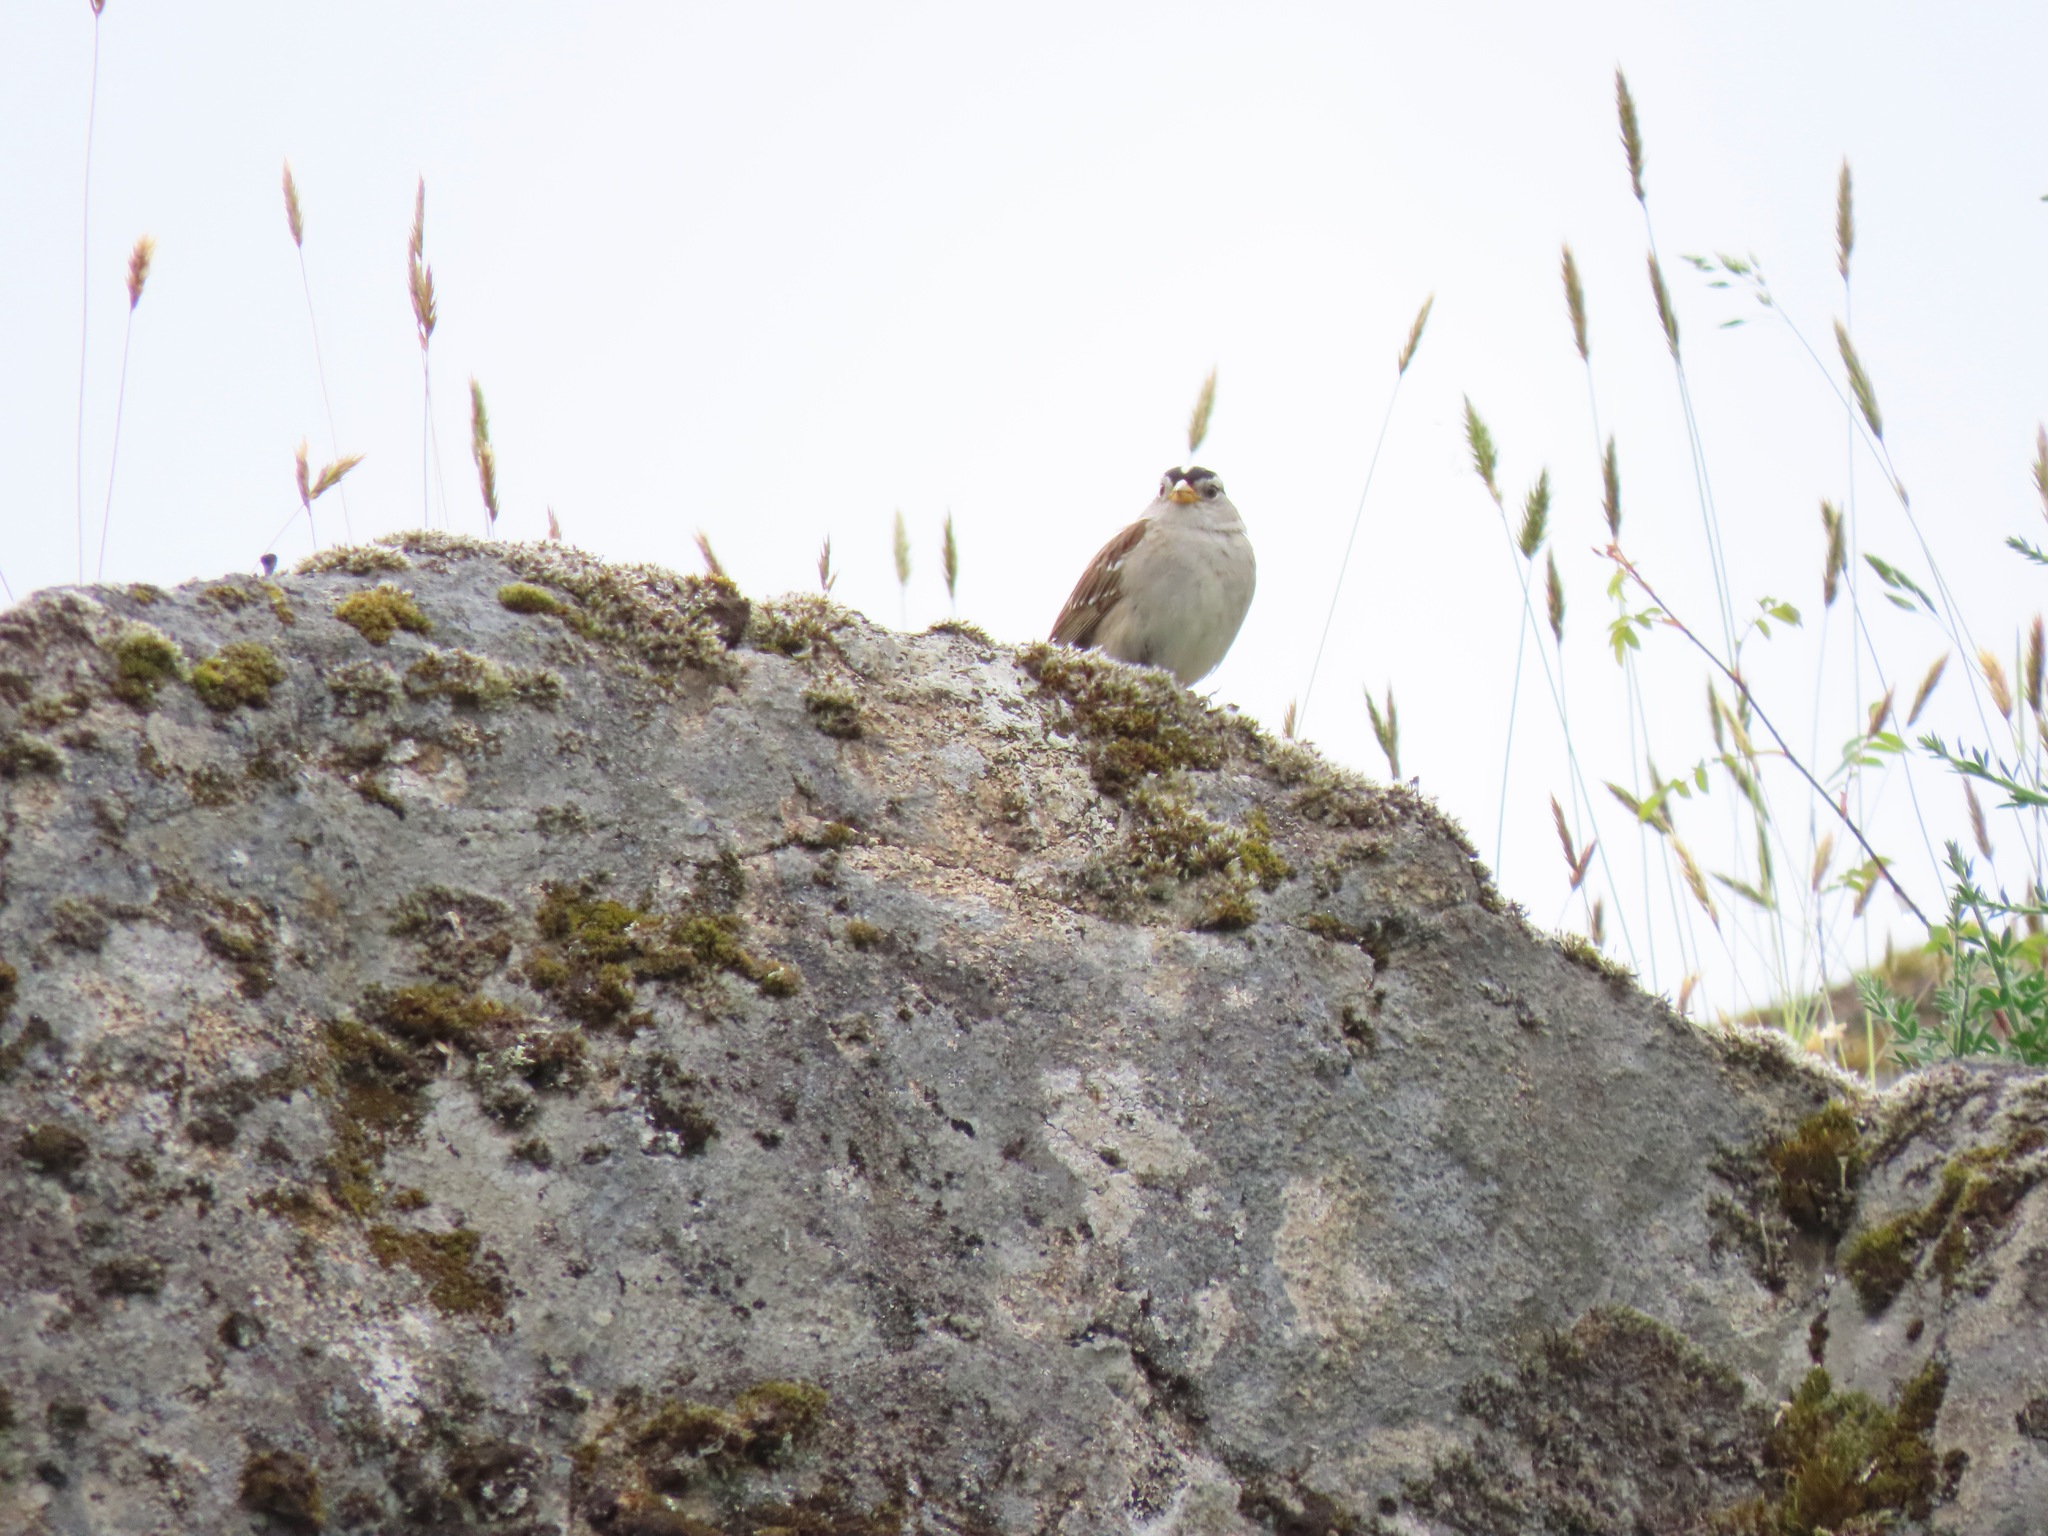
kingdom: Animalia
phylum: Chordata
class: Aves
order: Passeriformes
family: Passerellidae
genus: Zonotrichia
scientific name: Zonotrichia leucophrys
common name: White-crowned sparrow
